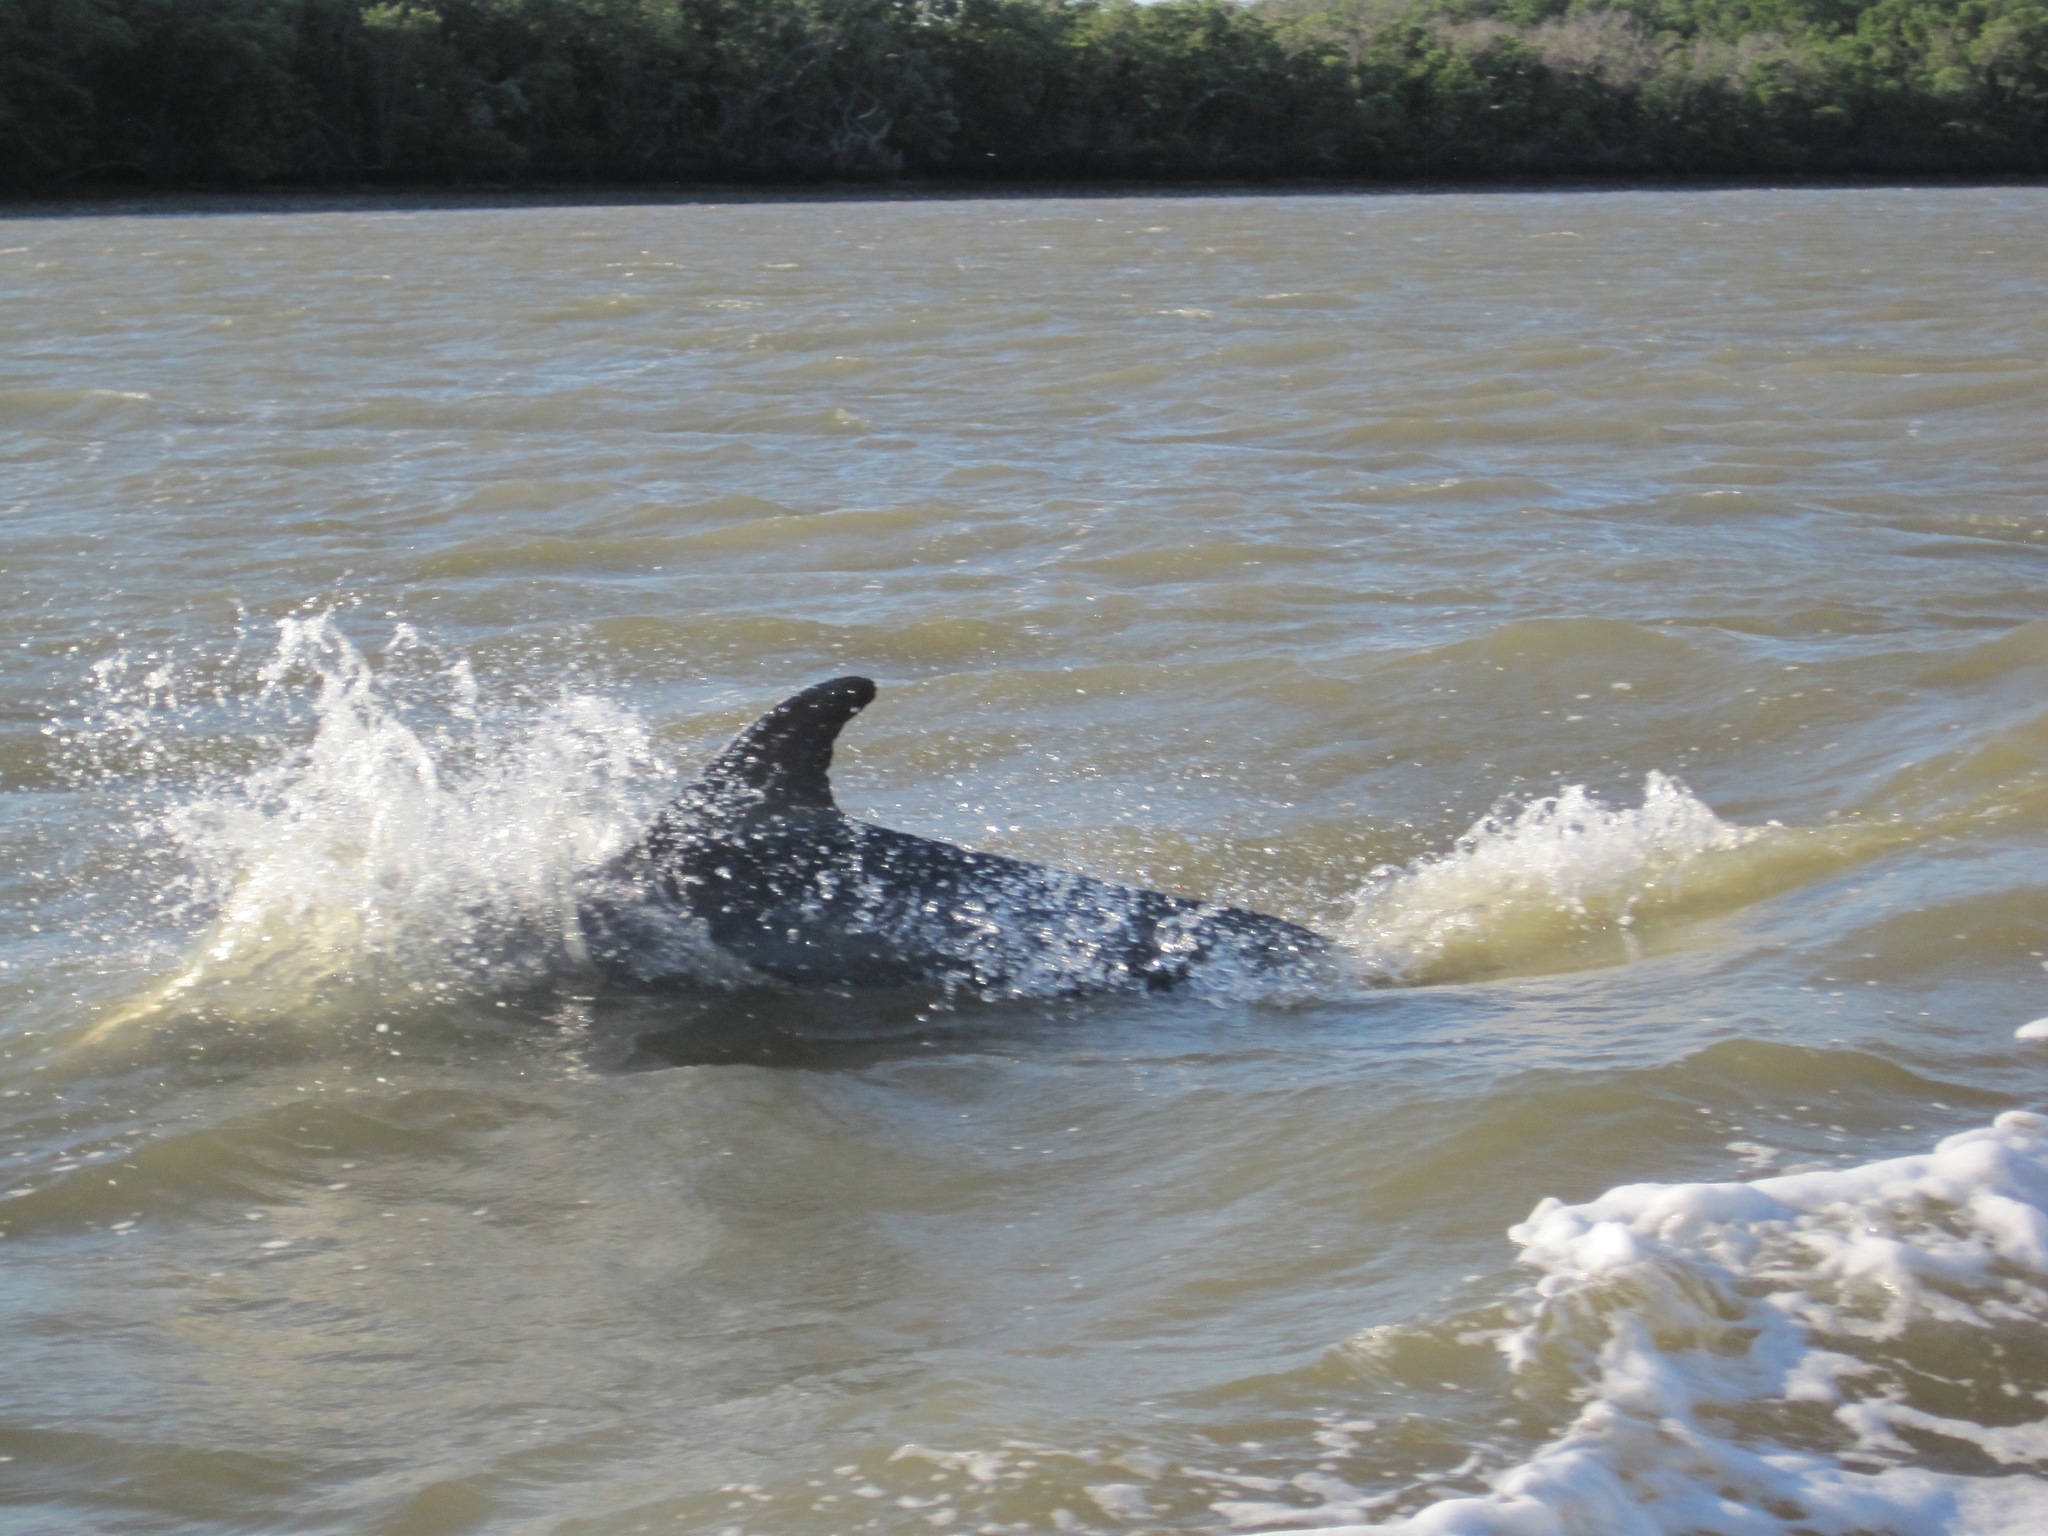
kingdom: Animalia
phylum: Chordata
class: Mammalia
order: Cetacea
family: Delphinidae
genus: Tursiops
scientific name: Tursiops truncatus
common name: Bottlenose dolphin
